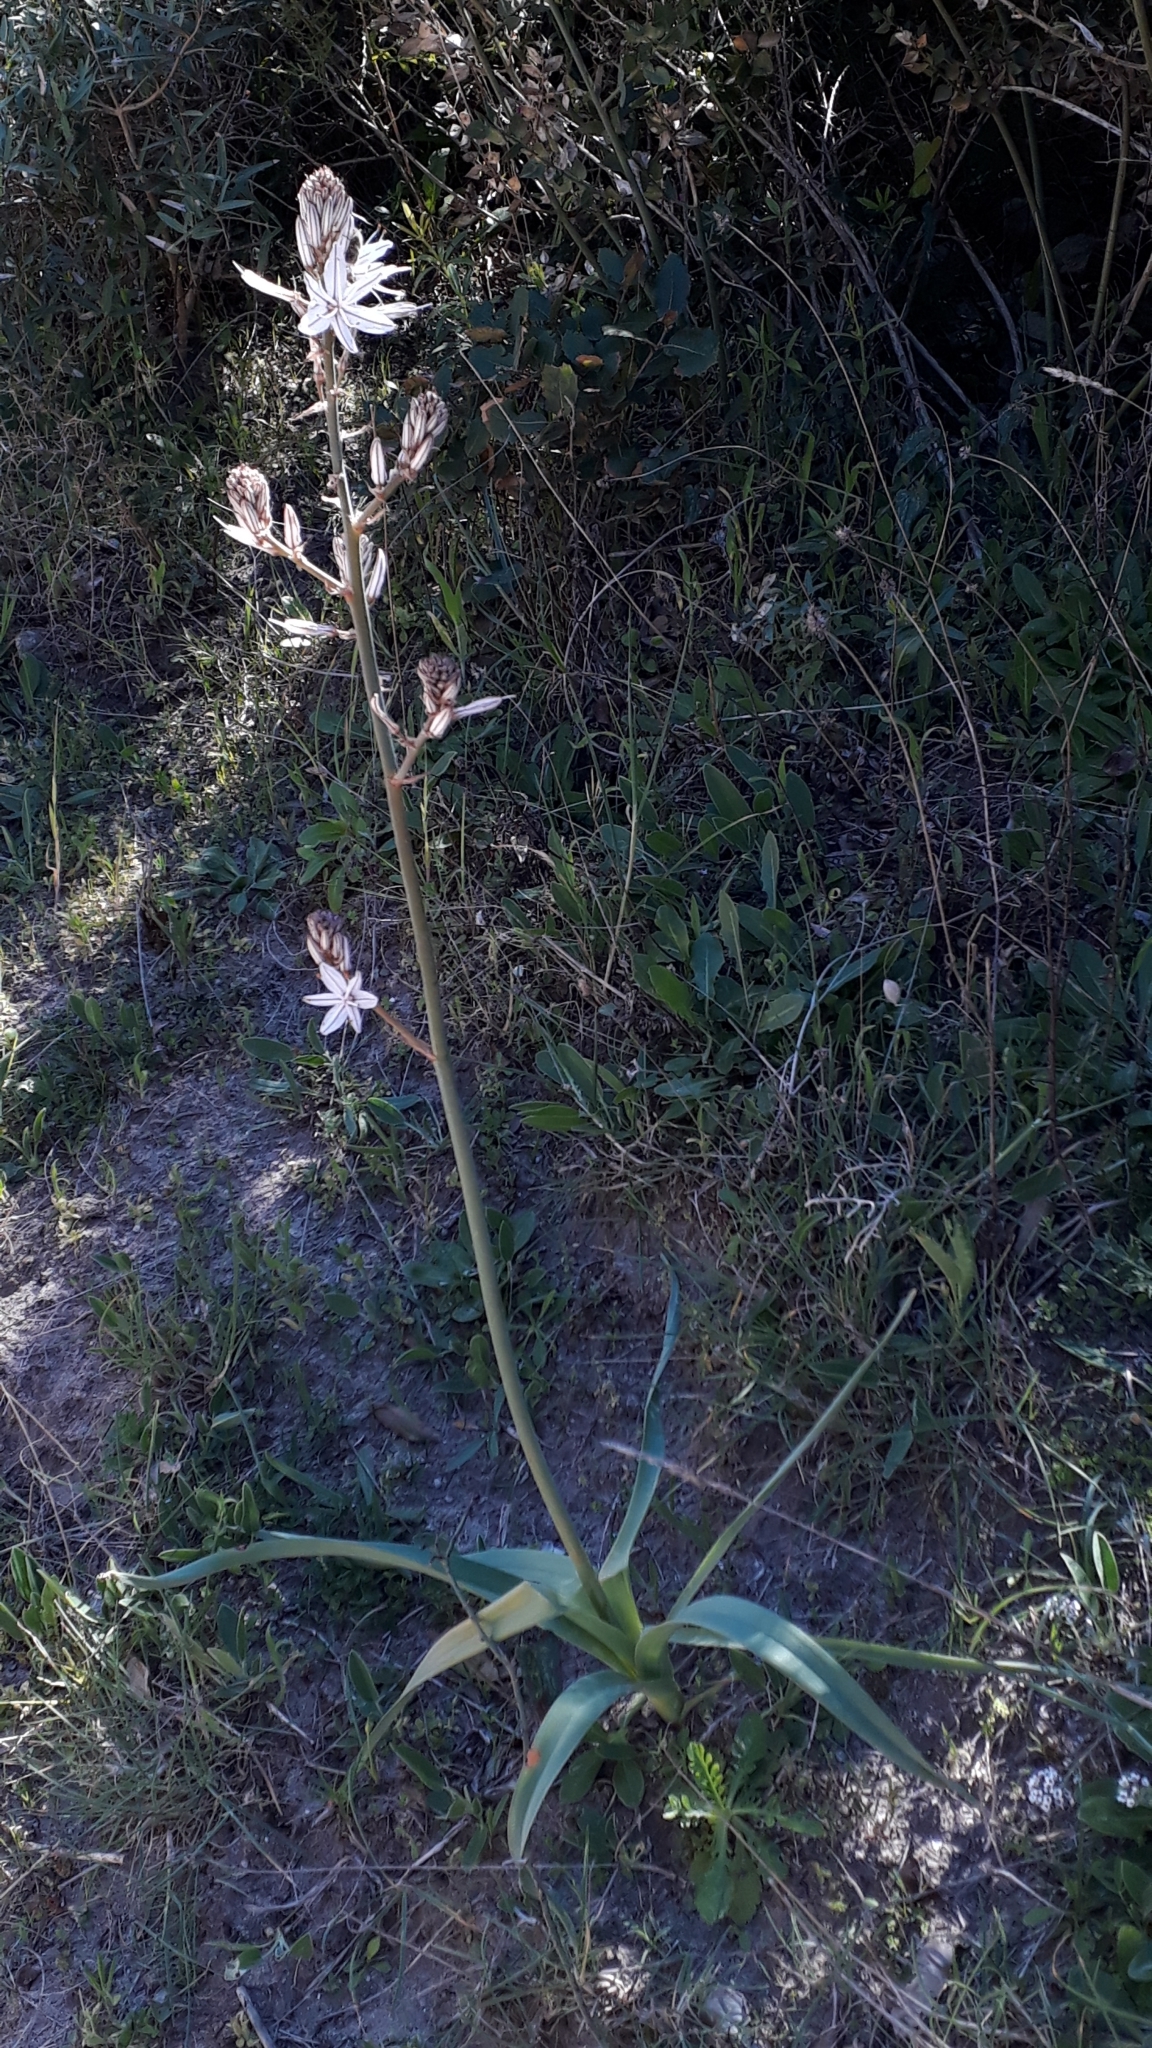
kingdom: Plantae
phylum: Tracheophyta
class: Liliopsida
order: Asparagales
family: Asphodelaceae
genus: Asphodelus
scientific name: Asphodelus ramosus
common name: Silverrod
